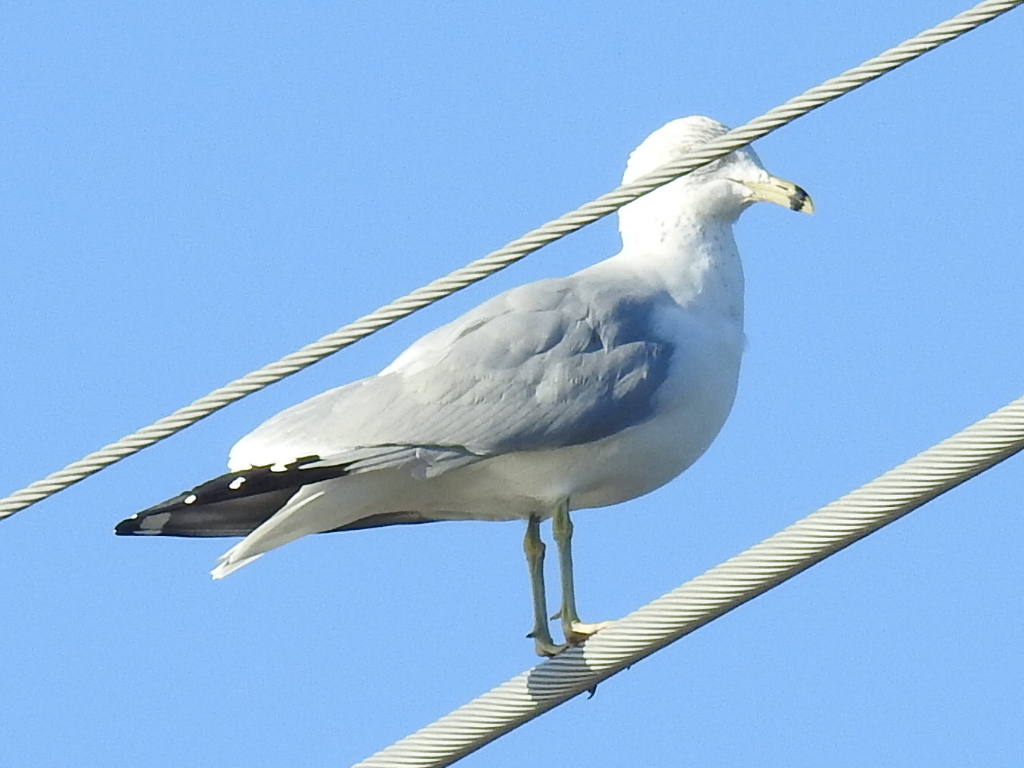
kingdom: Animalia
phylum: Chordata
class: Aves
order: Charadriiformes
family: Laridae
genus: Larus
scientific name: Larus delawarensis
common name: Ring-billed gull
